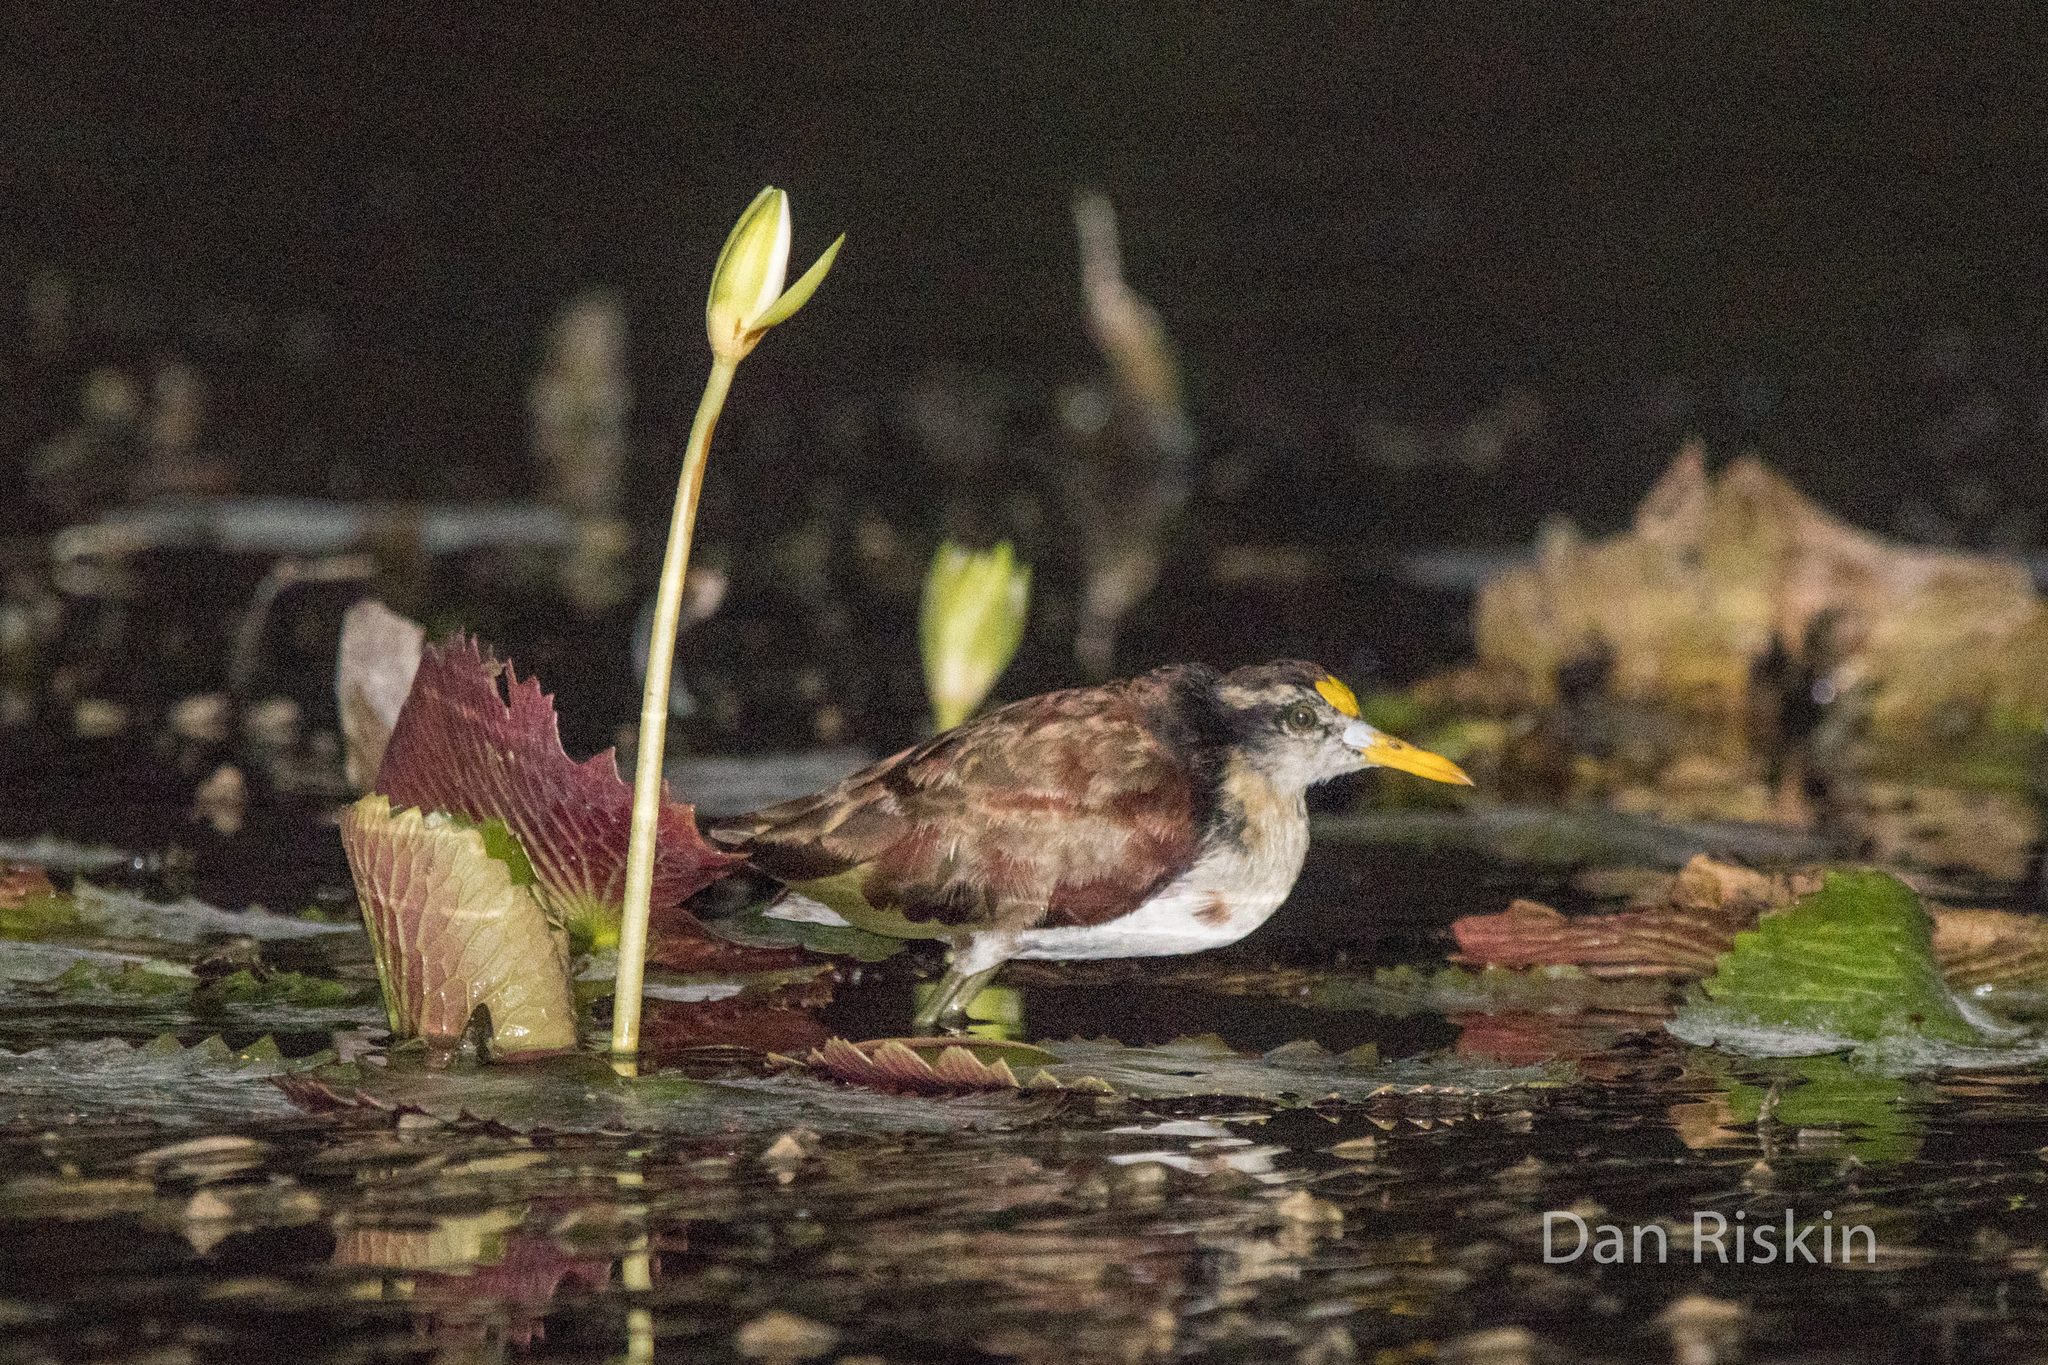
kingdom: Animalia
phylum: Chordata
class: Aves
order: Charadriiformes
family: Jacanidae
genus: Jacana
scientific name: Jacana spinosa
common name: Northern jacana
